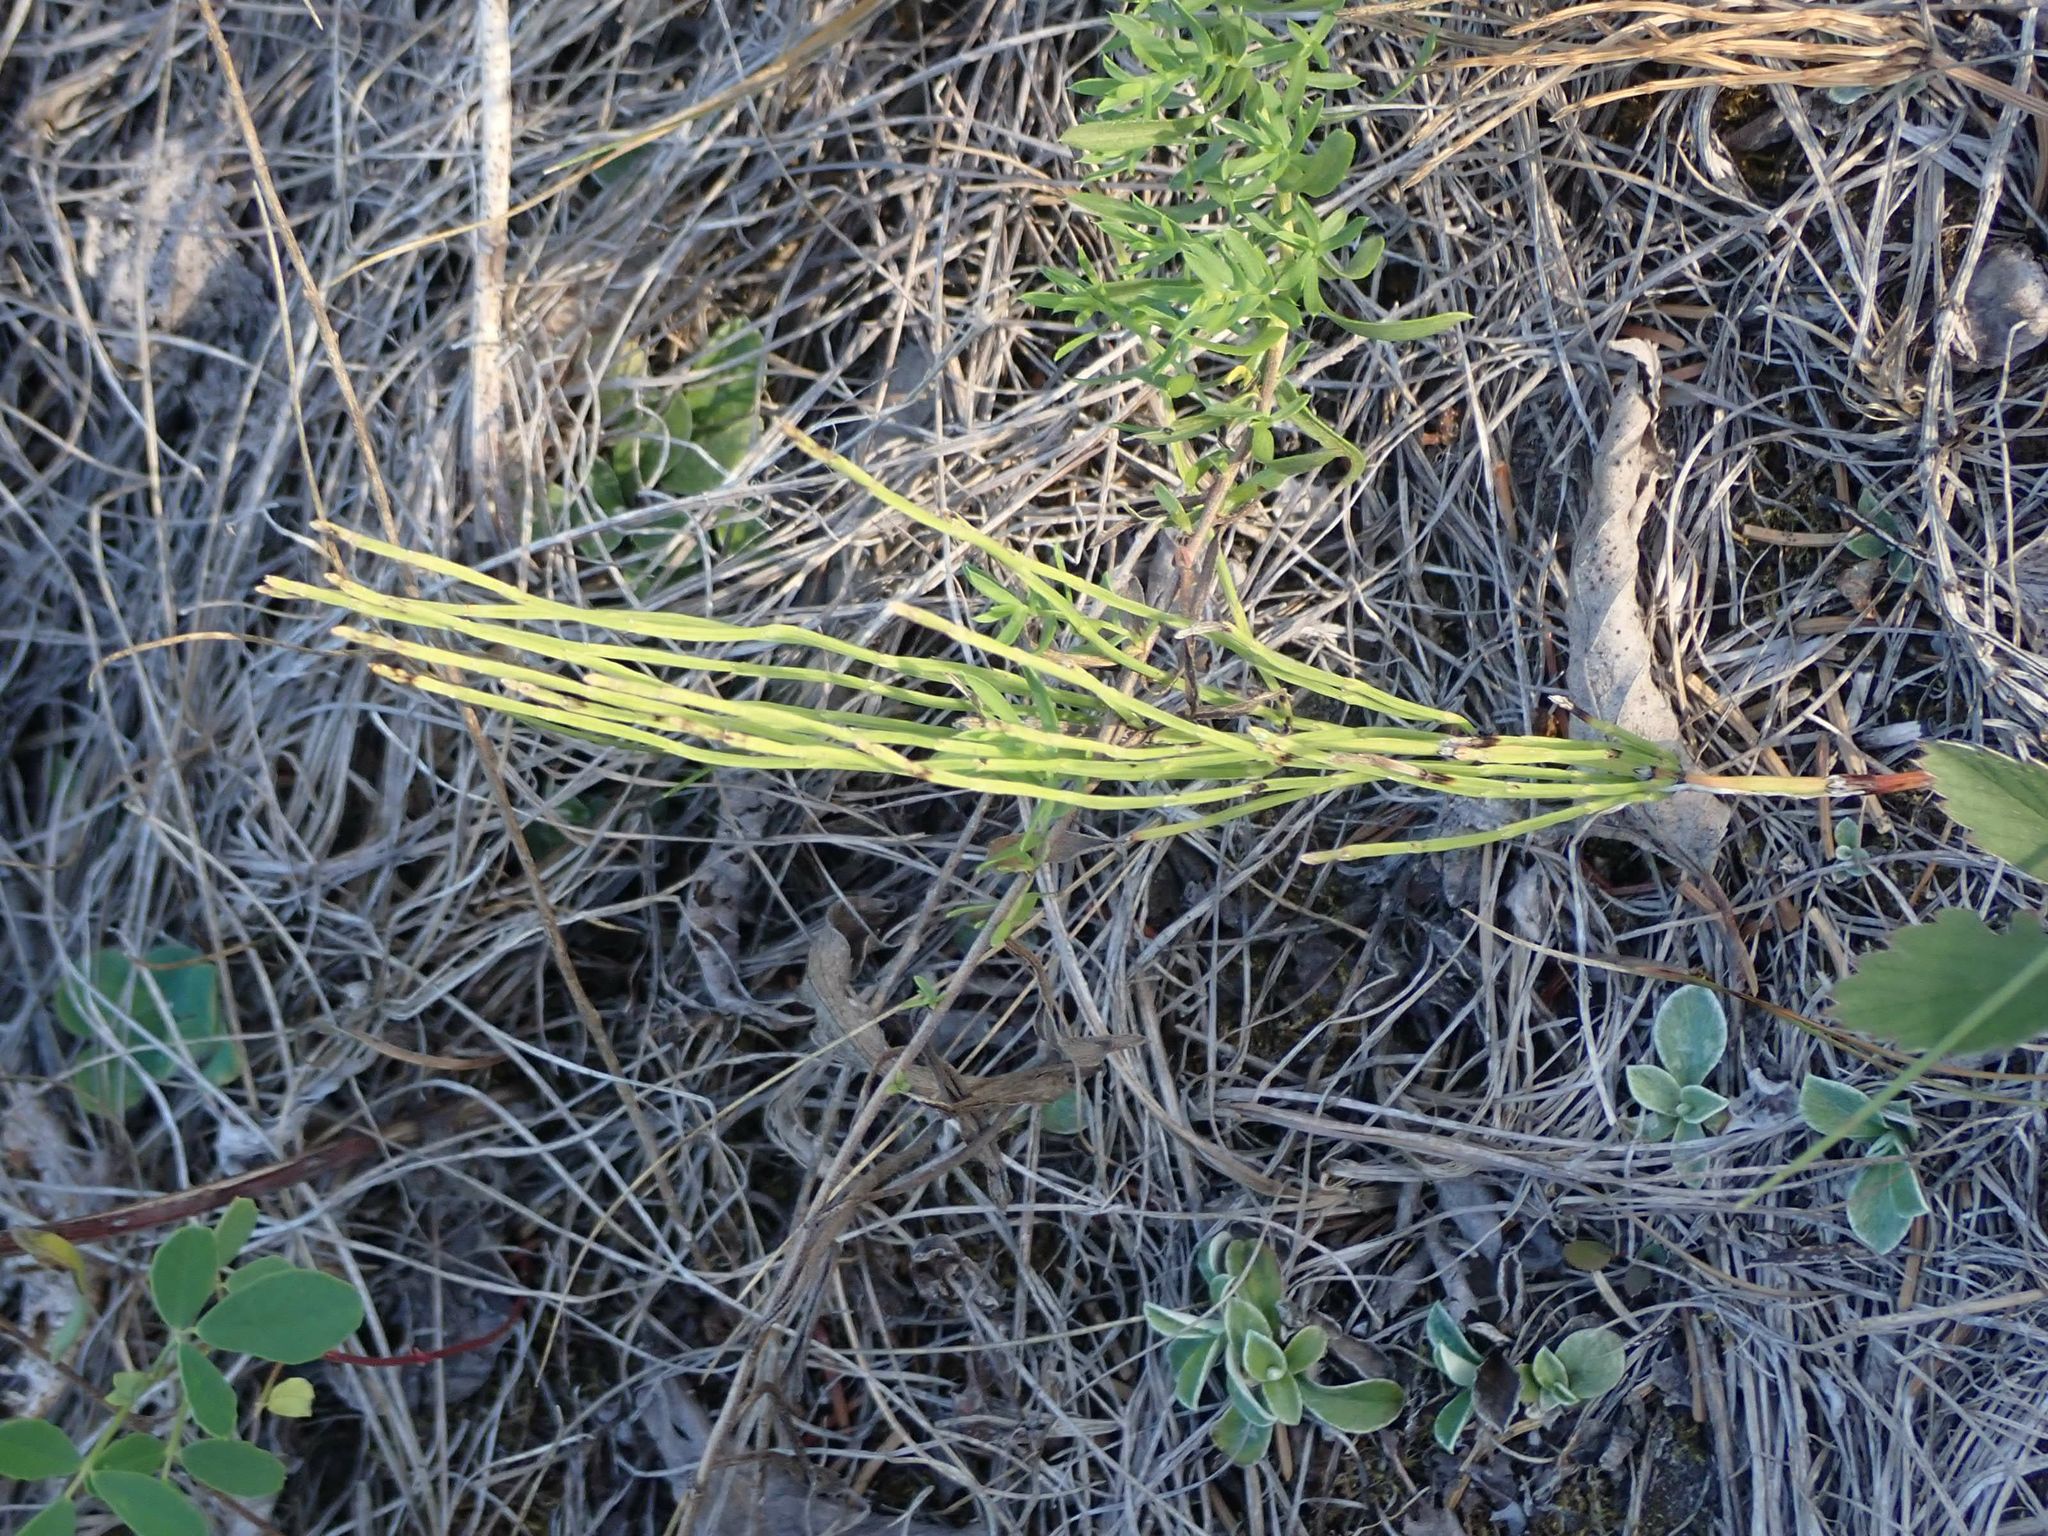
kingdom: Plantae
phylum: Tracheophyta
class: Polypodiopsida
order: Equisetales
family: Equisetaceae
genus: Equisetum
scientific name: Equisetum arvense
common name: Field horsetail
